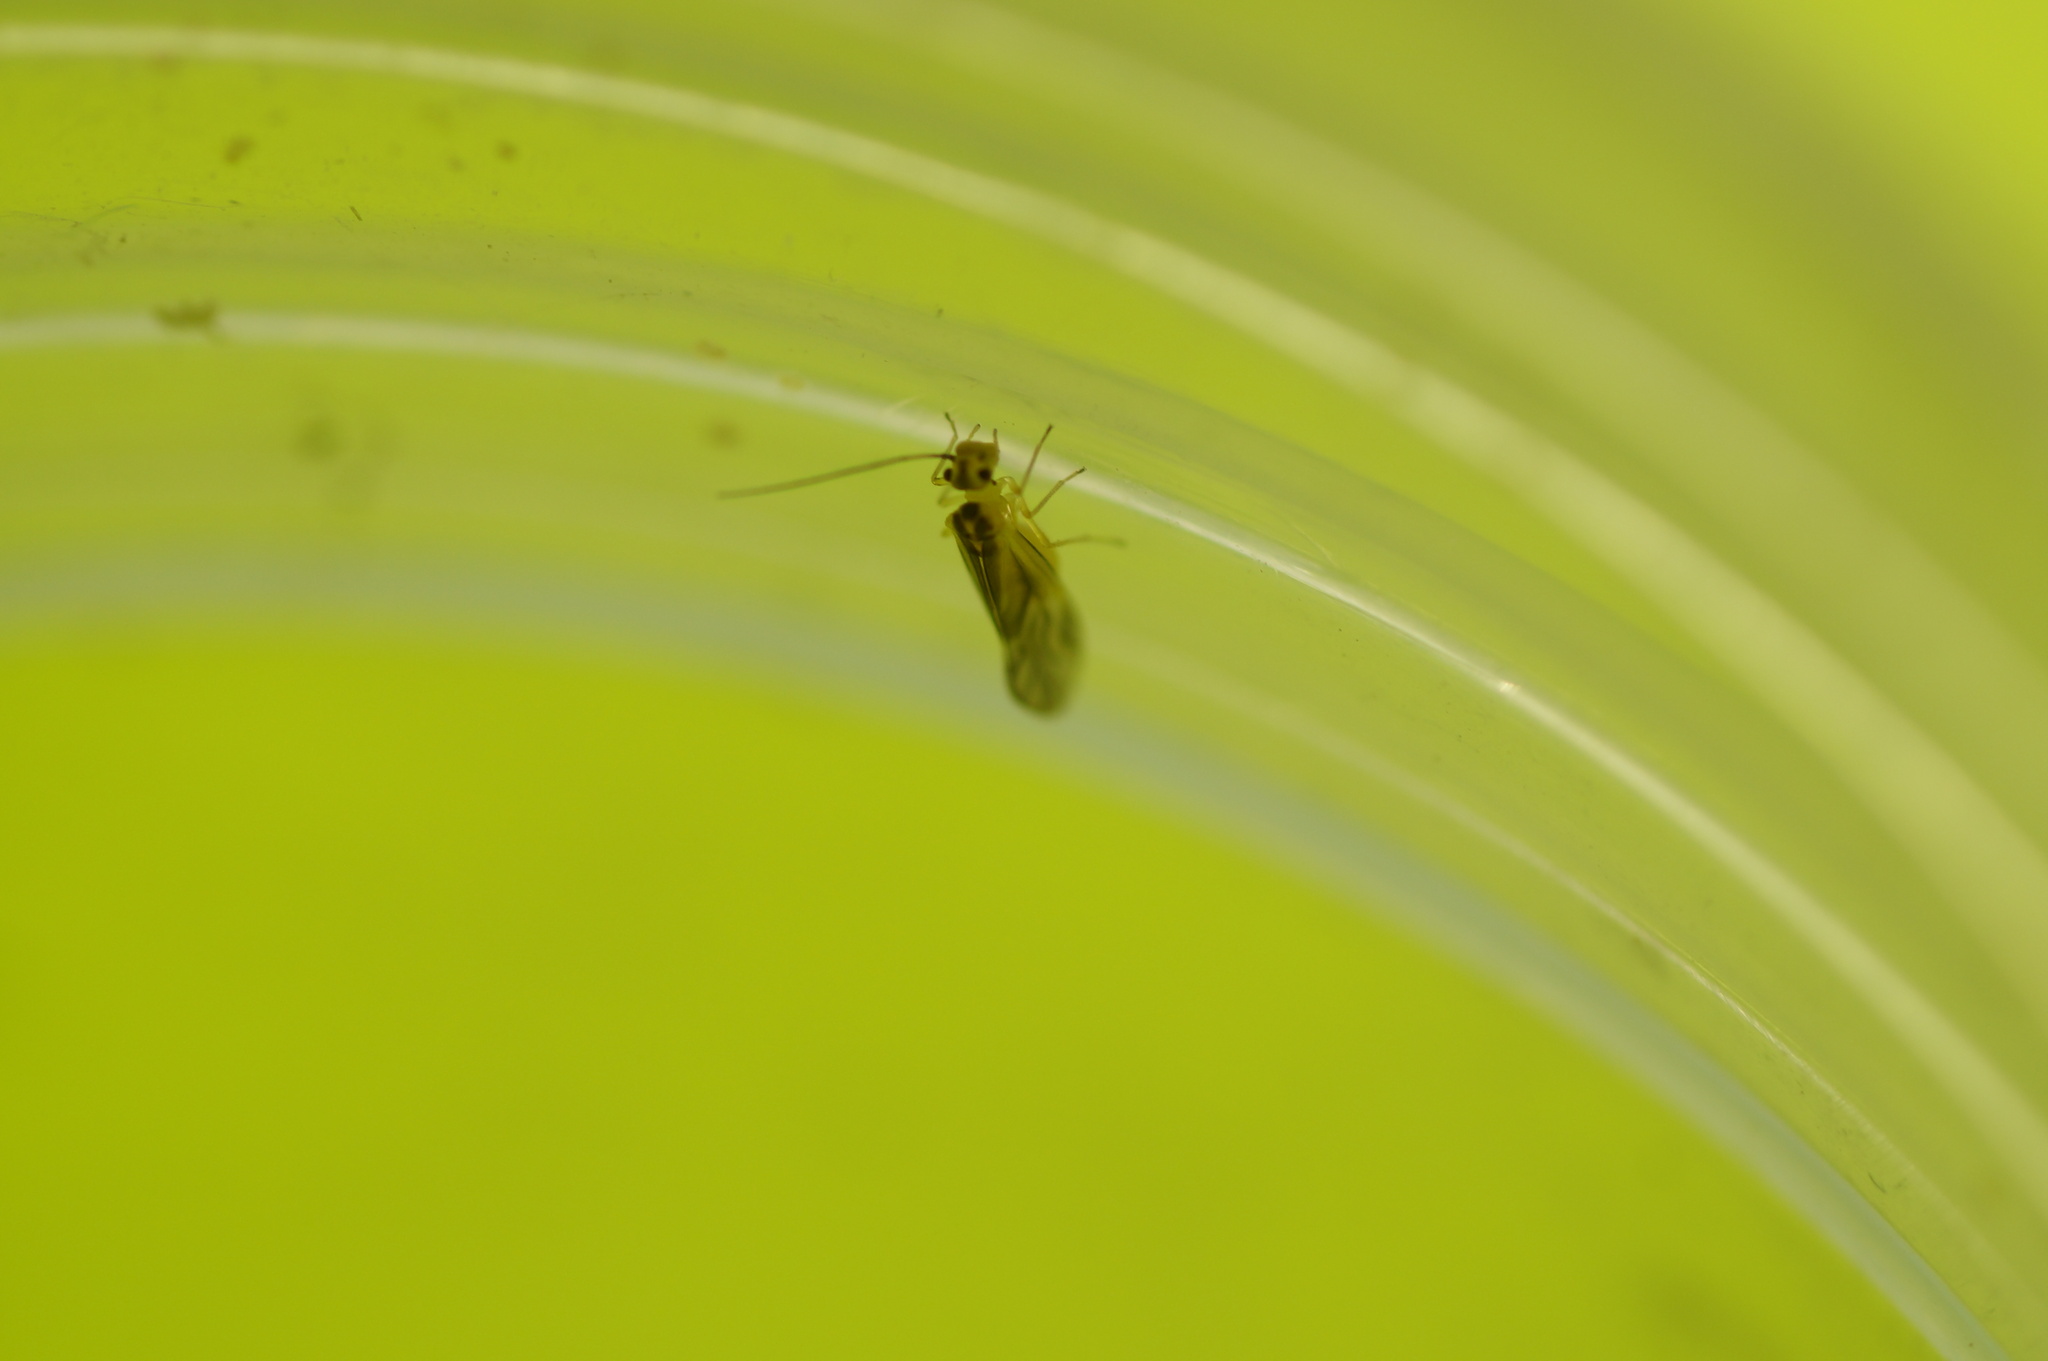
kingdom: Animalia
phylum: Arthropoda
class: Insecta
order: Psocodea
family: Caeciliusidae
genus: Valenzuela
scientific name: Valenzuela flavidus
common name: Yellow barklouse
